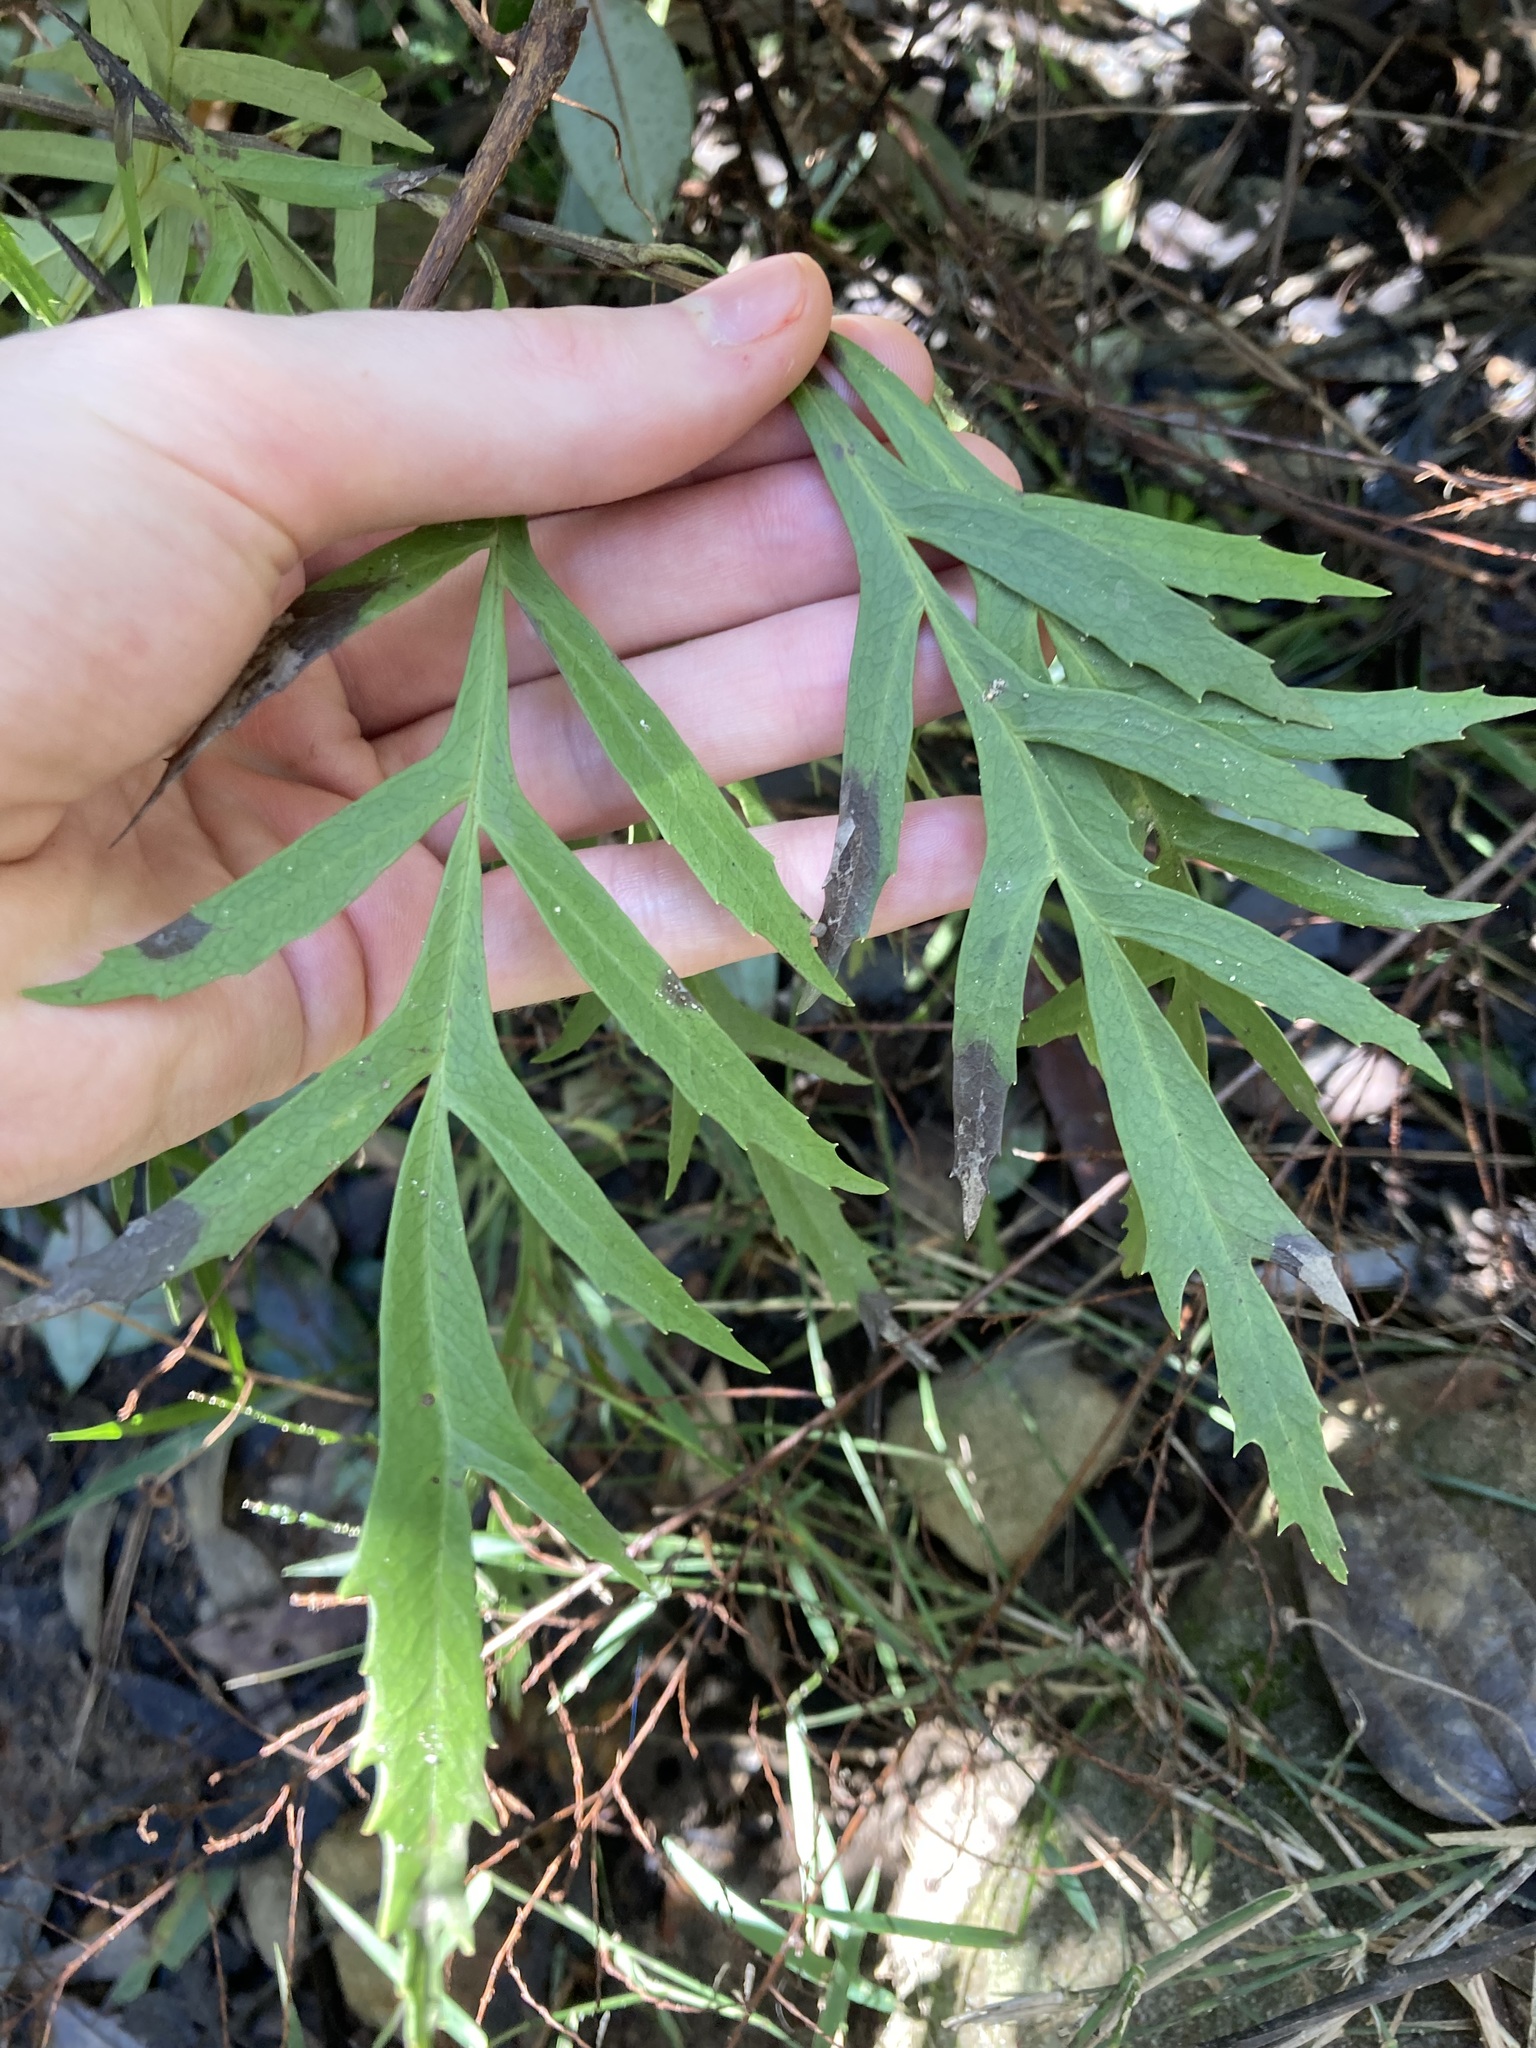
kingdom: Plantae
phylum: Tracheophyta
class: Magnoliopsida
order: Proteales
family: Proteaceae
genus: Lomatia
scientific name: Lomatia silaifolia
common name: Crinklebush
